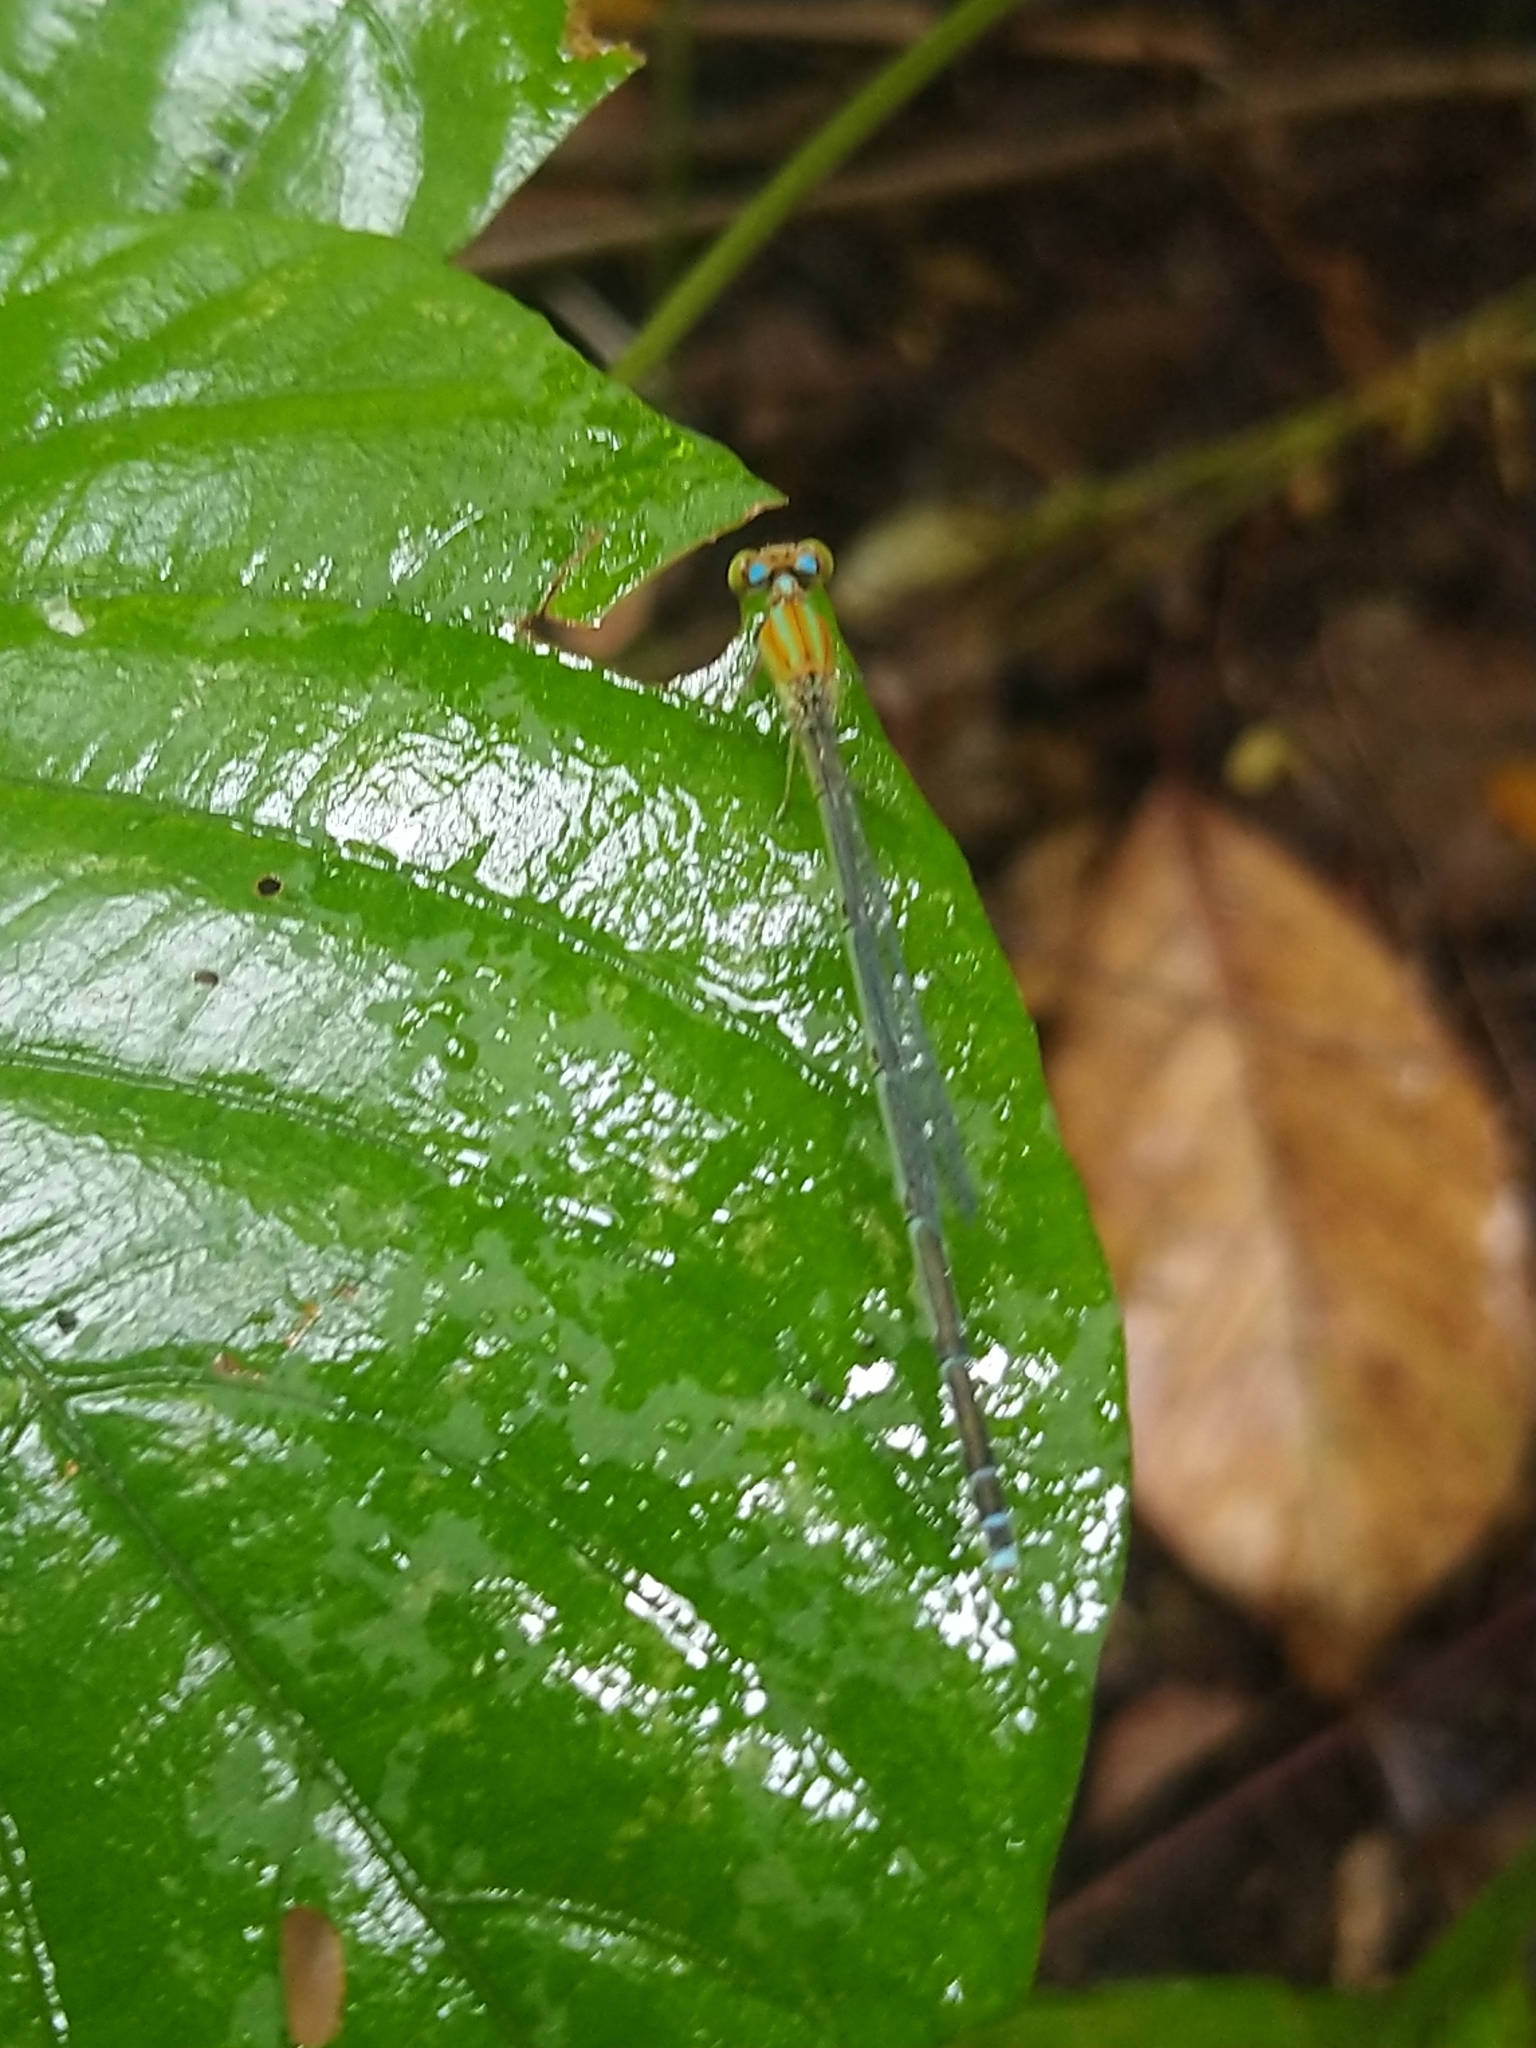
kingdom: Animalia
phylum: Arthropoda
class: Insecta
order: Odonata
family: Coenagrionidae
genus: Pseudagrion
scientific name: Pseudagrion microcephalum
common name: Blue riverdamsel
